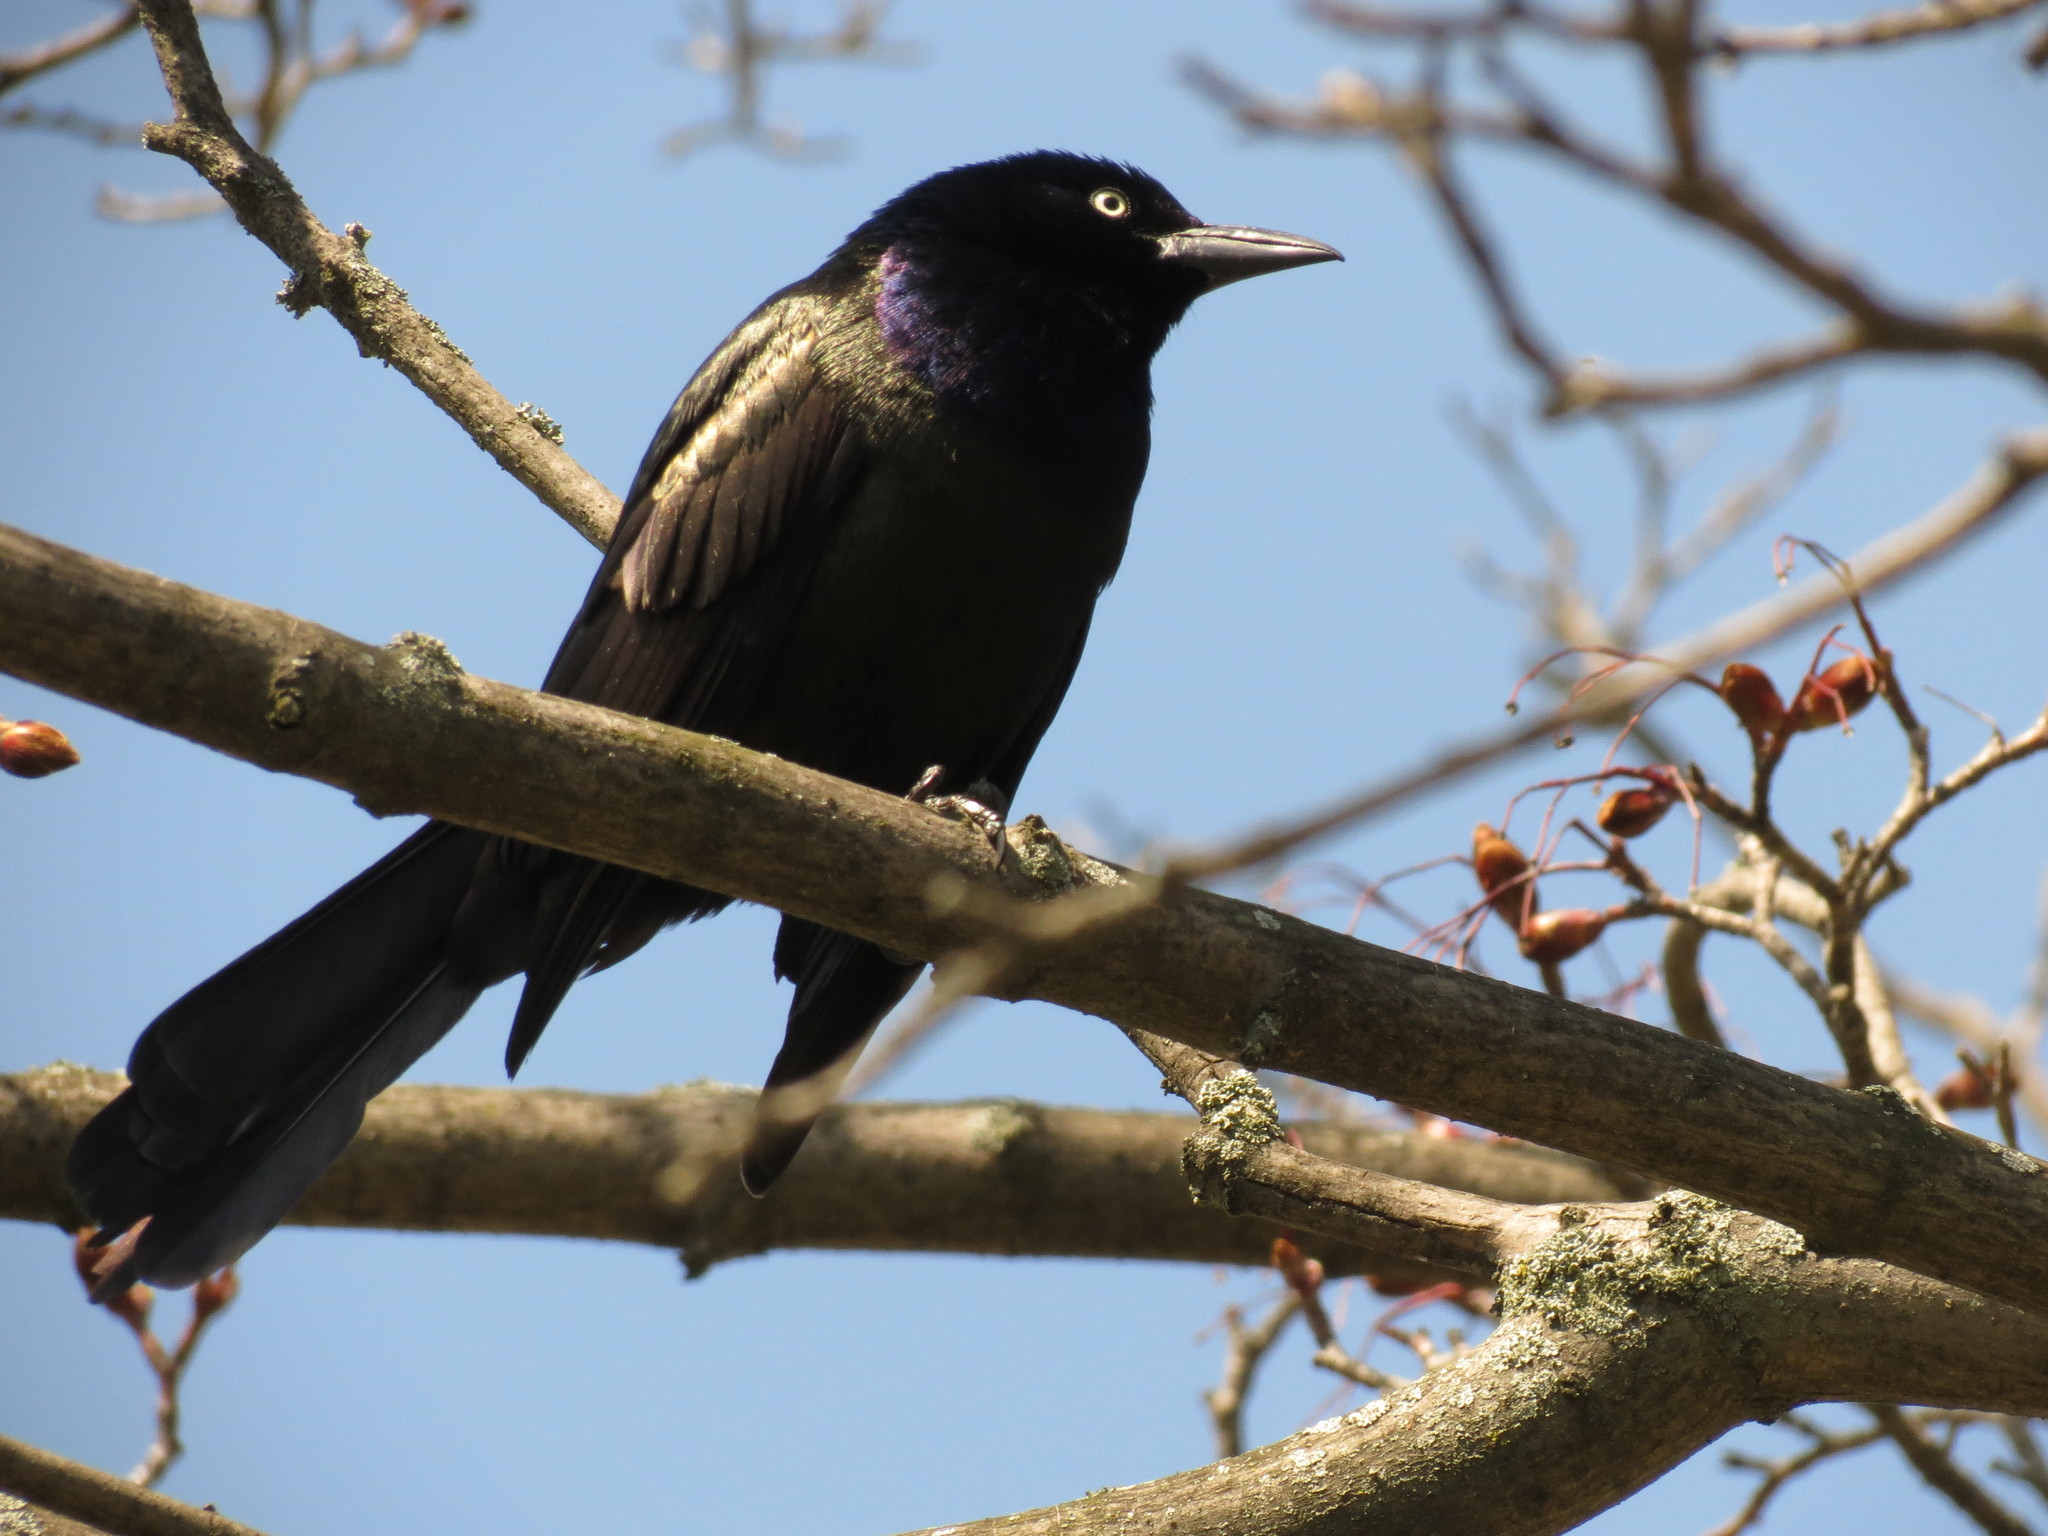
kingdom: Animalia
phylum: Chordata
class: Aves
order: Passeriformes
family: Icteridae
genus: Quiscalus
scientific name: Quiscalus quiscula
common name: Common grackle
